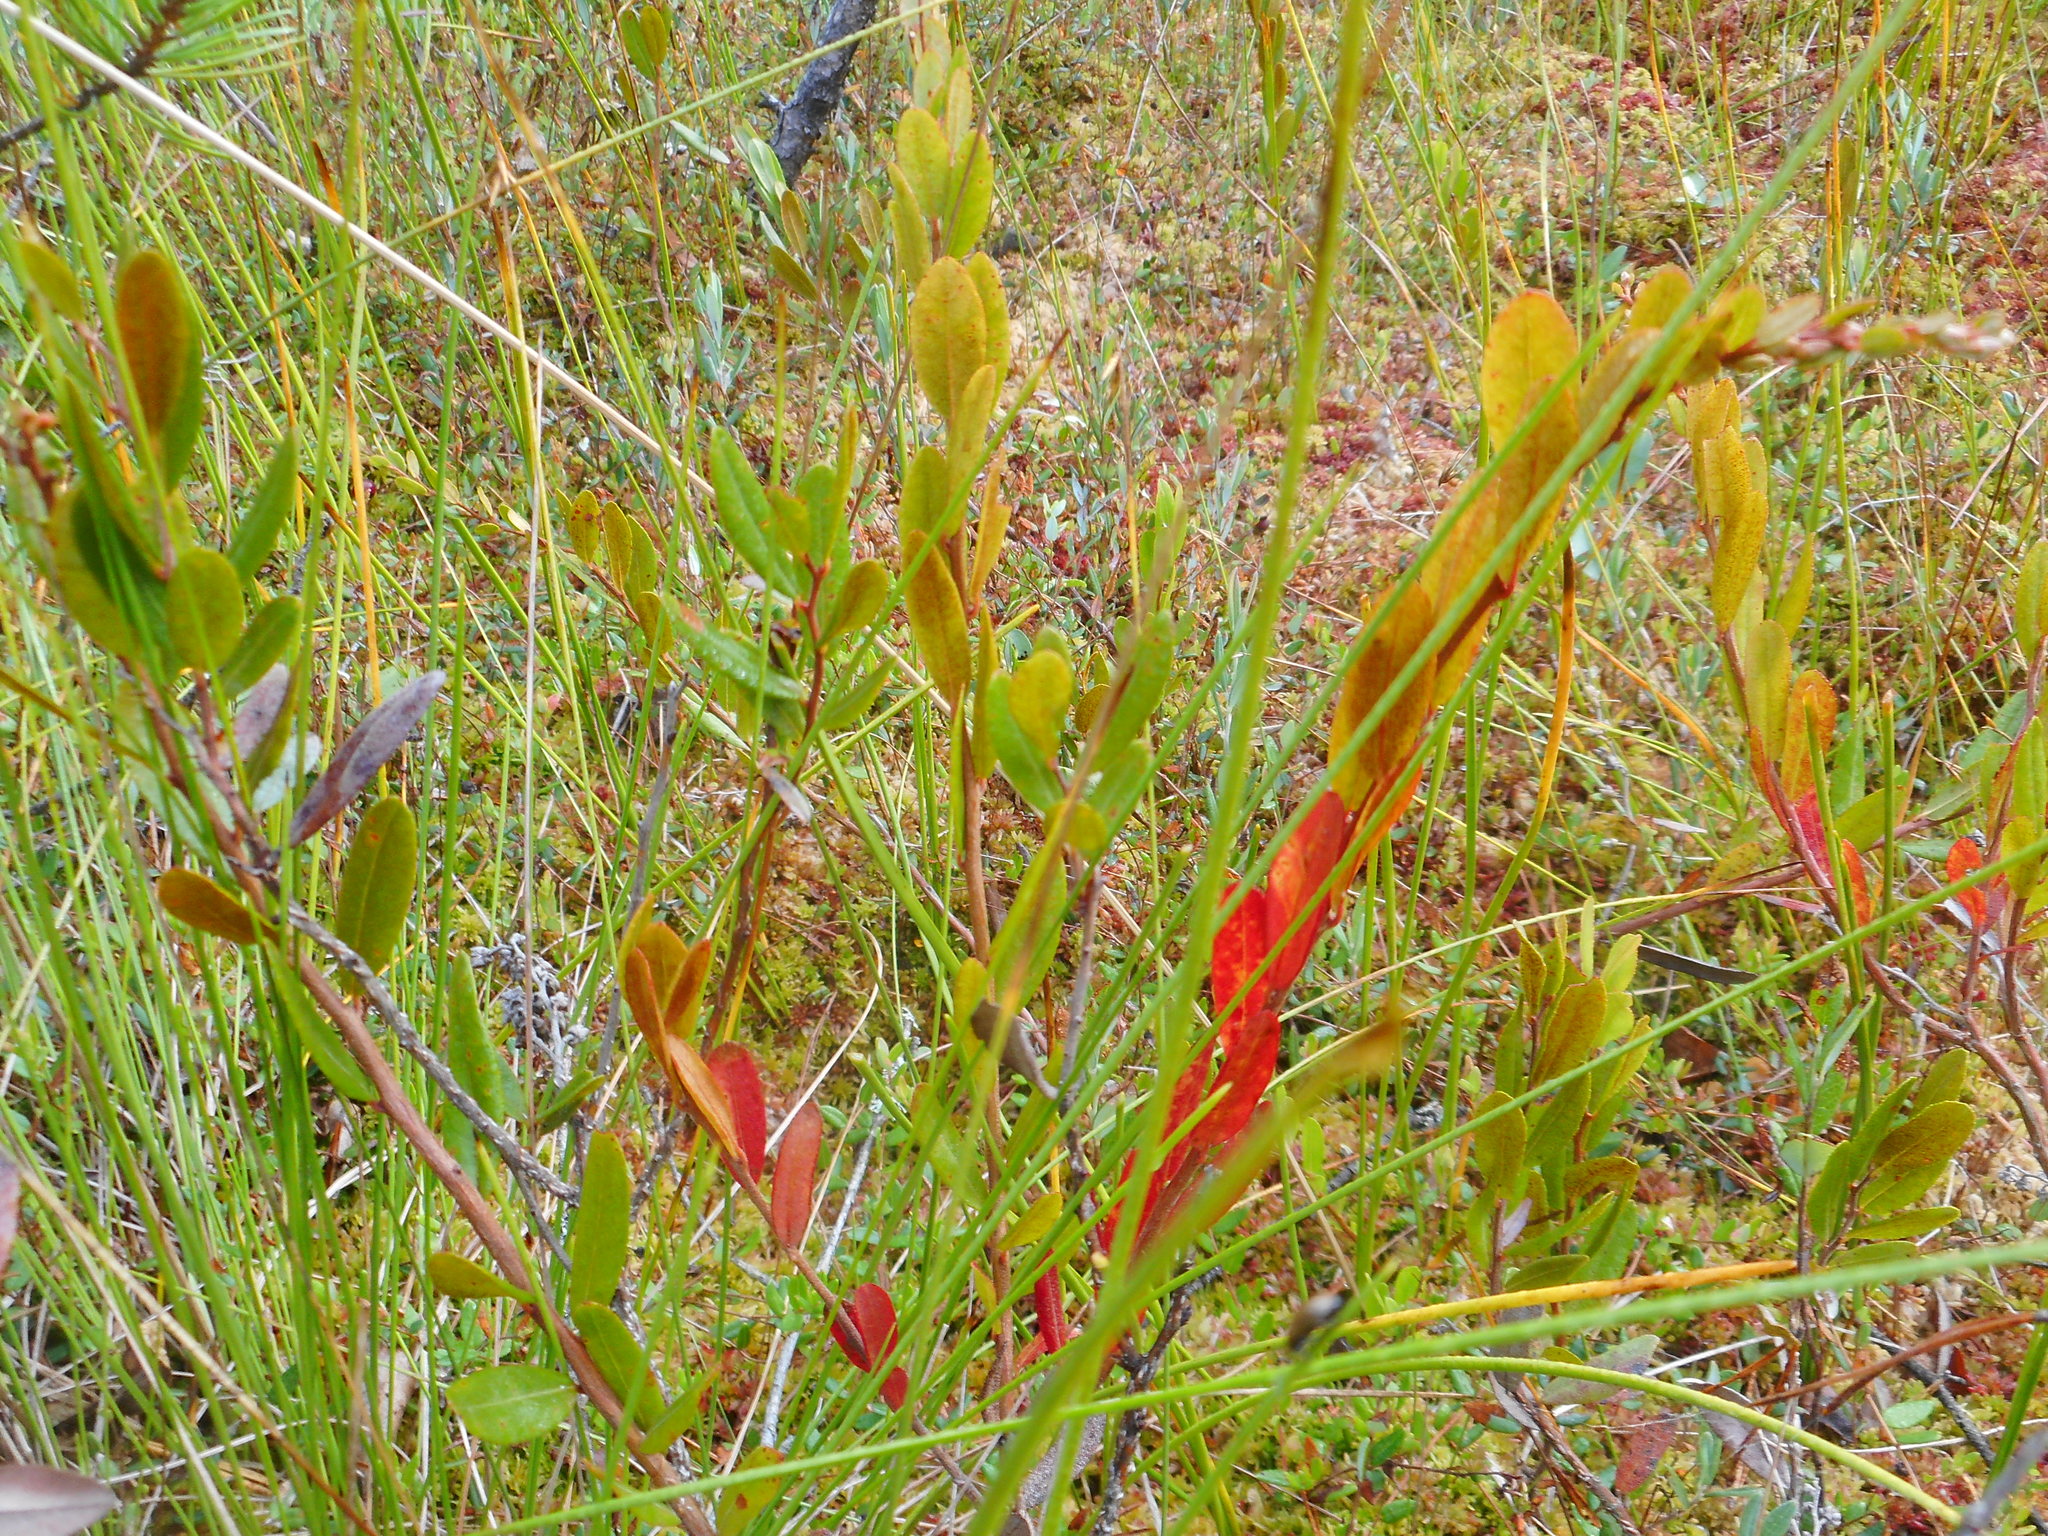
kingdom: Plantae
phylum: Tracheophyta
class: Magnoliopsida
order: Ericales
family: Ericaceae
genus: Chamaedaphne
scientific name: Chamaedaphne calyculata
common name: Leatherleaf
